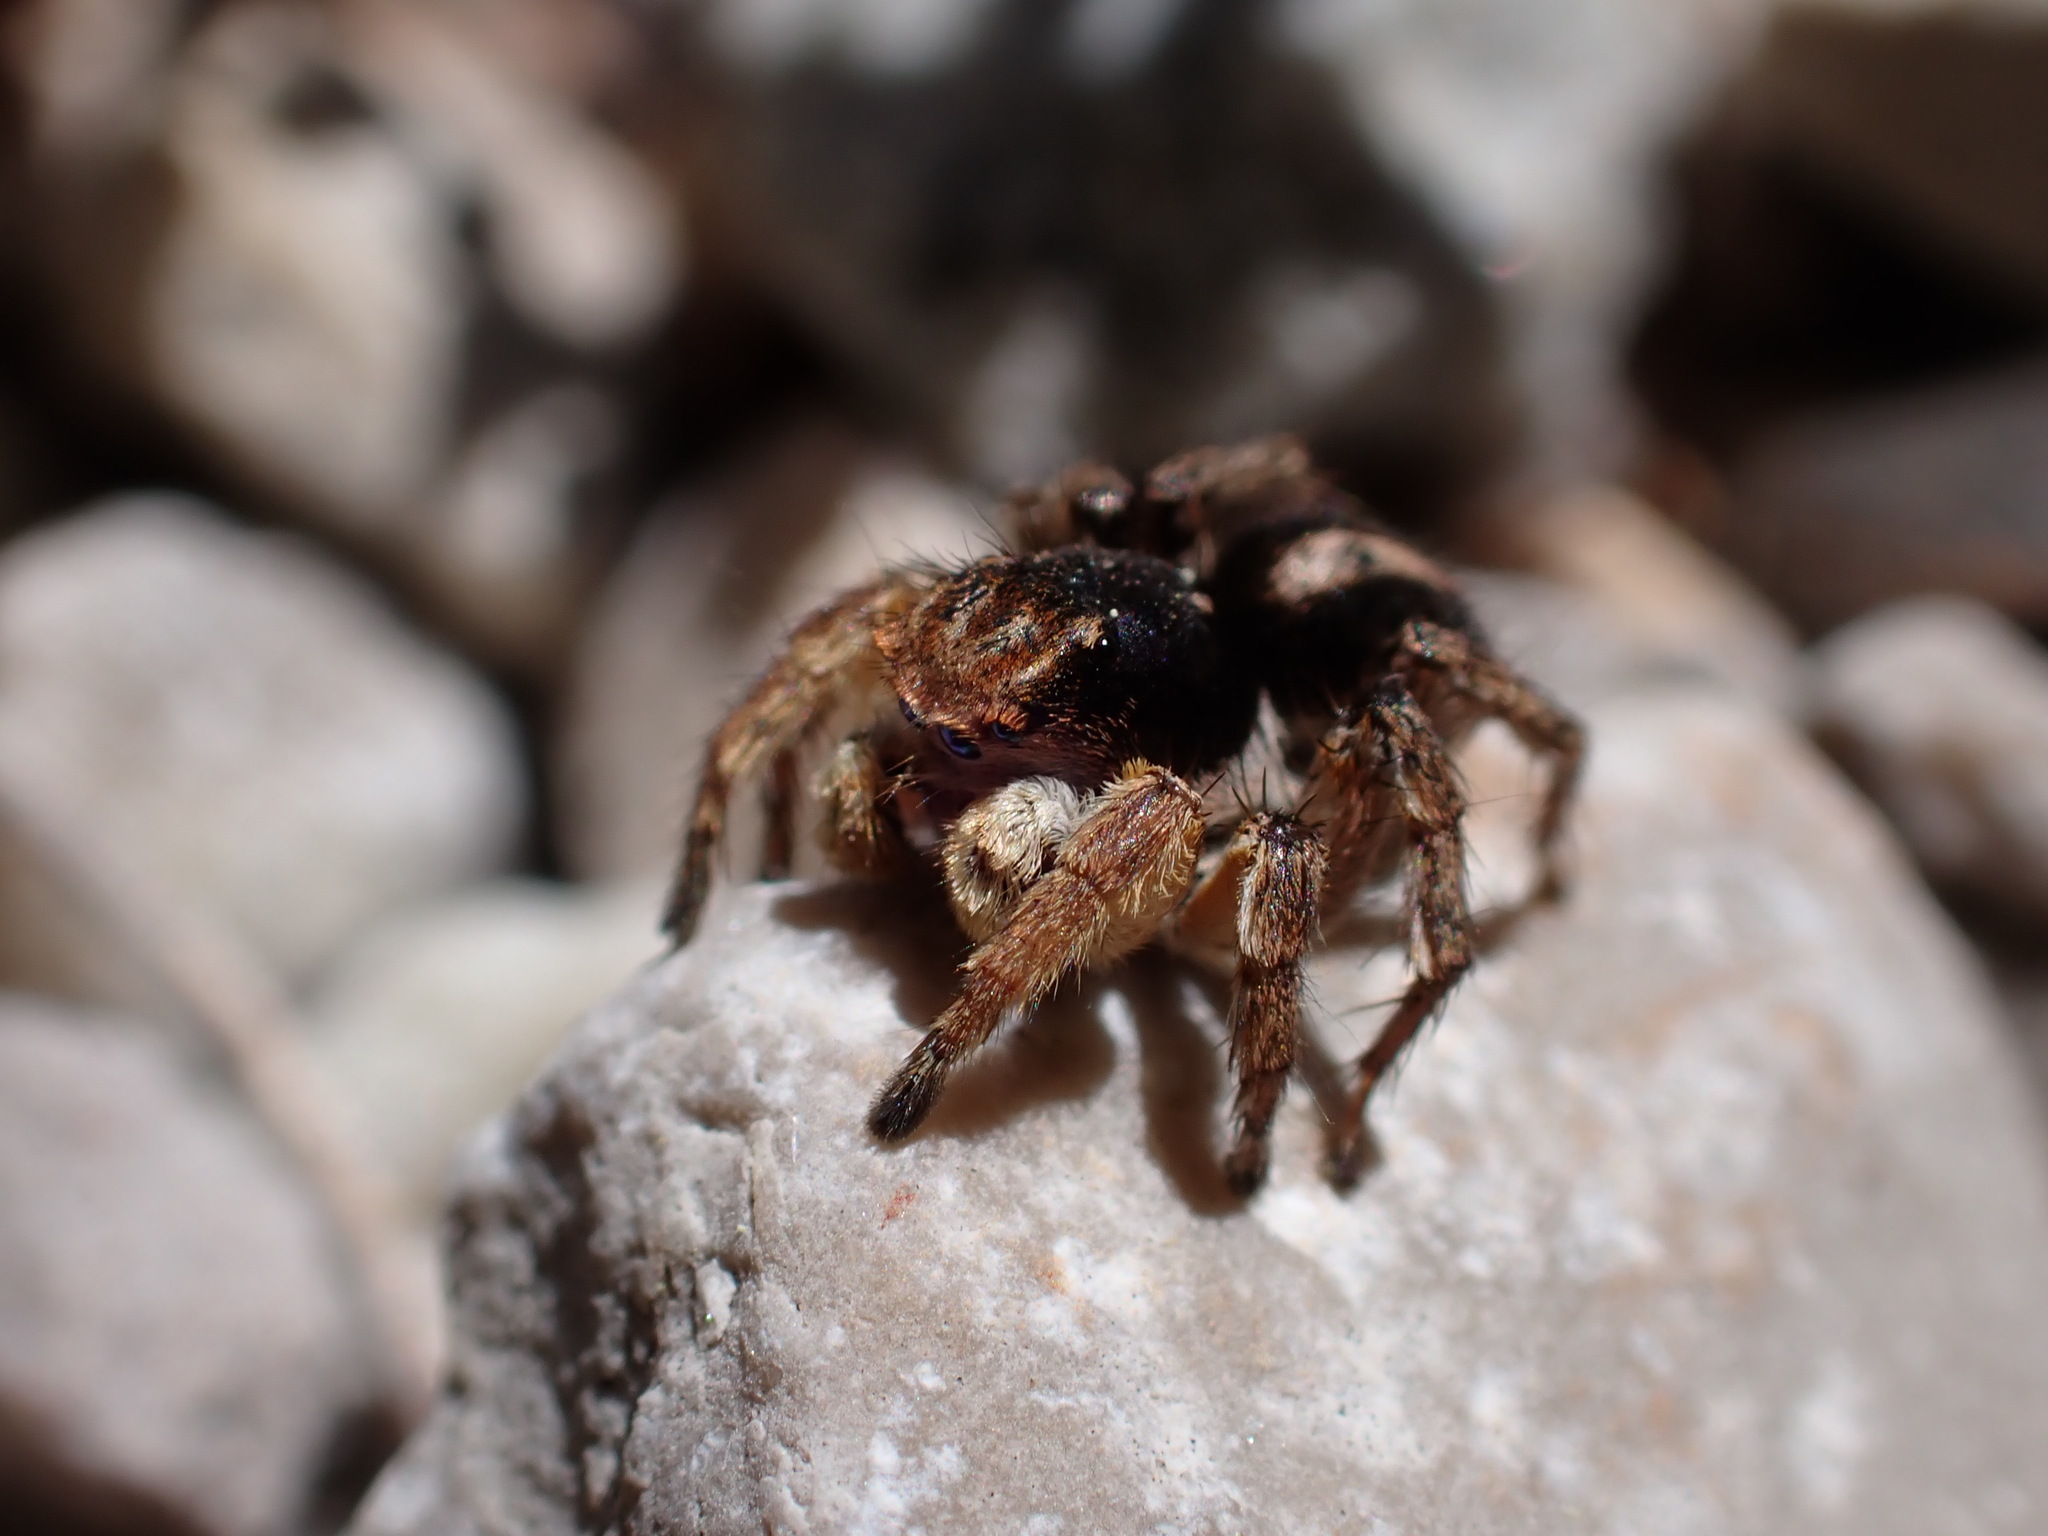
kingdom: Animalia
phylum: Arthropoda
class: Arachnida
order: Araneae
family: Salticidae
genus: Aelurillus
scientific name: Aelurillus v-insignitus
